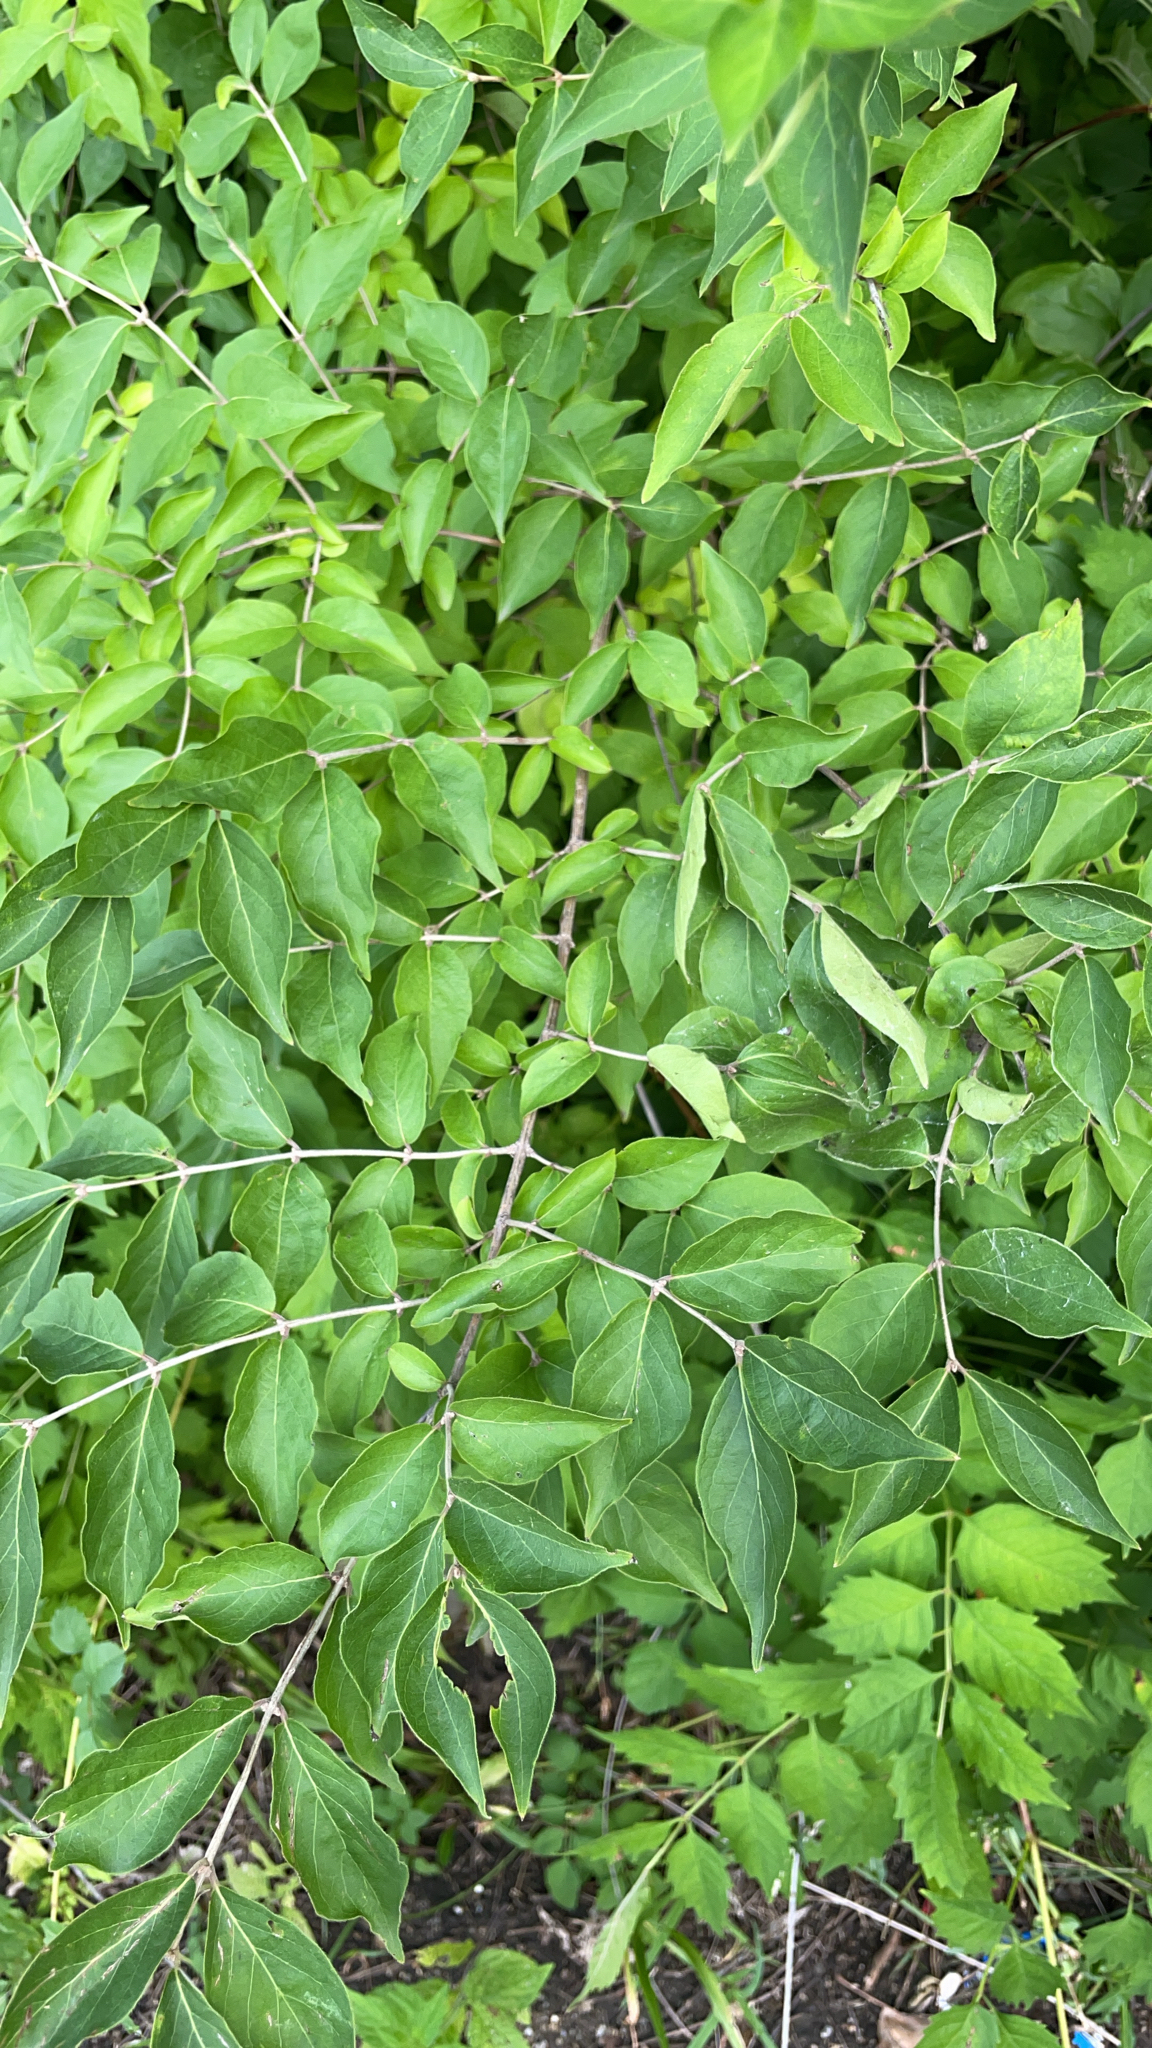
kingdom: Plantae
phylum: Tracheophyta
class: Magnoliopsida
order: Dipsacales
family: Caprifoliaceae
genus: Lonicera
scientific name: Lonicera maackii
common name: Amur honeysuckle
